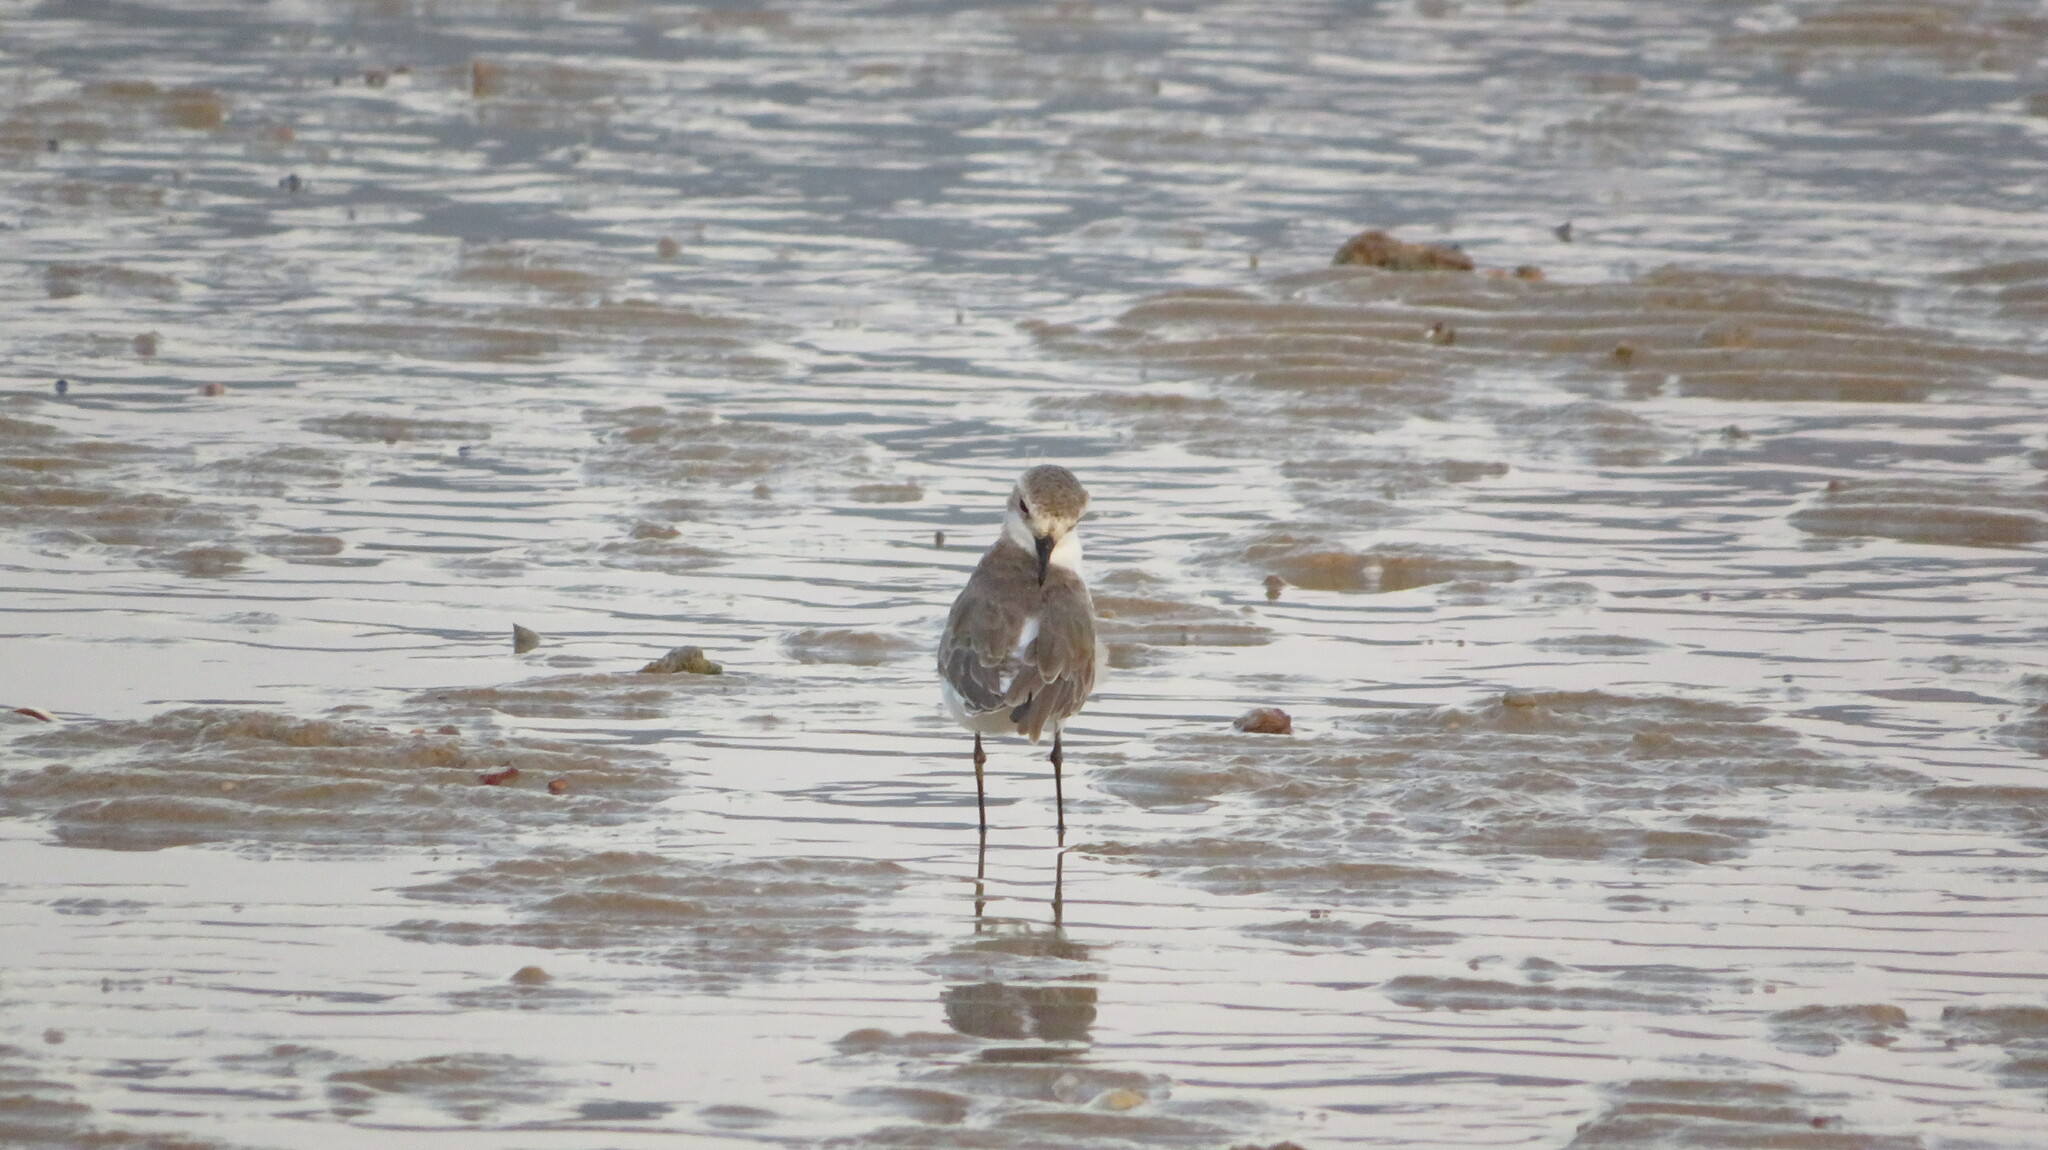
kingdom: Animalia
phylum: Chordata
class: Aves
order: Charadriiformes
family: Charadriidae
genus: Charadrius
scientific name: Charadrius leschenaultii
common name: Greater sand plover
